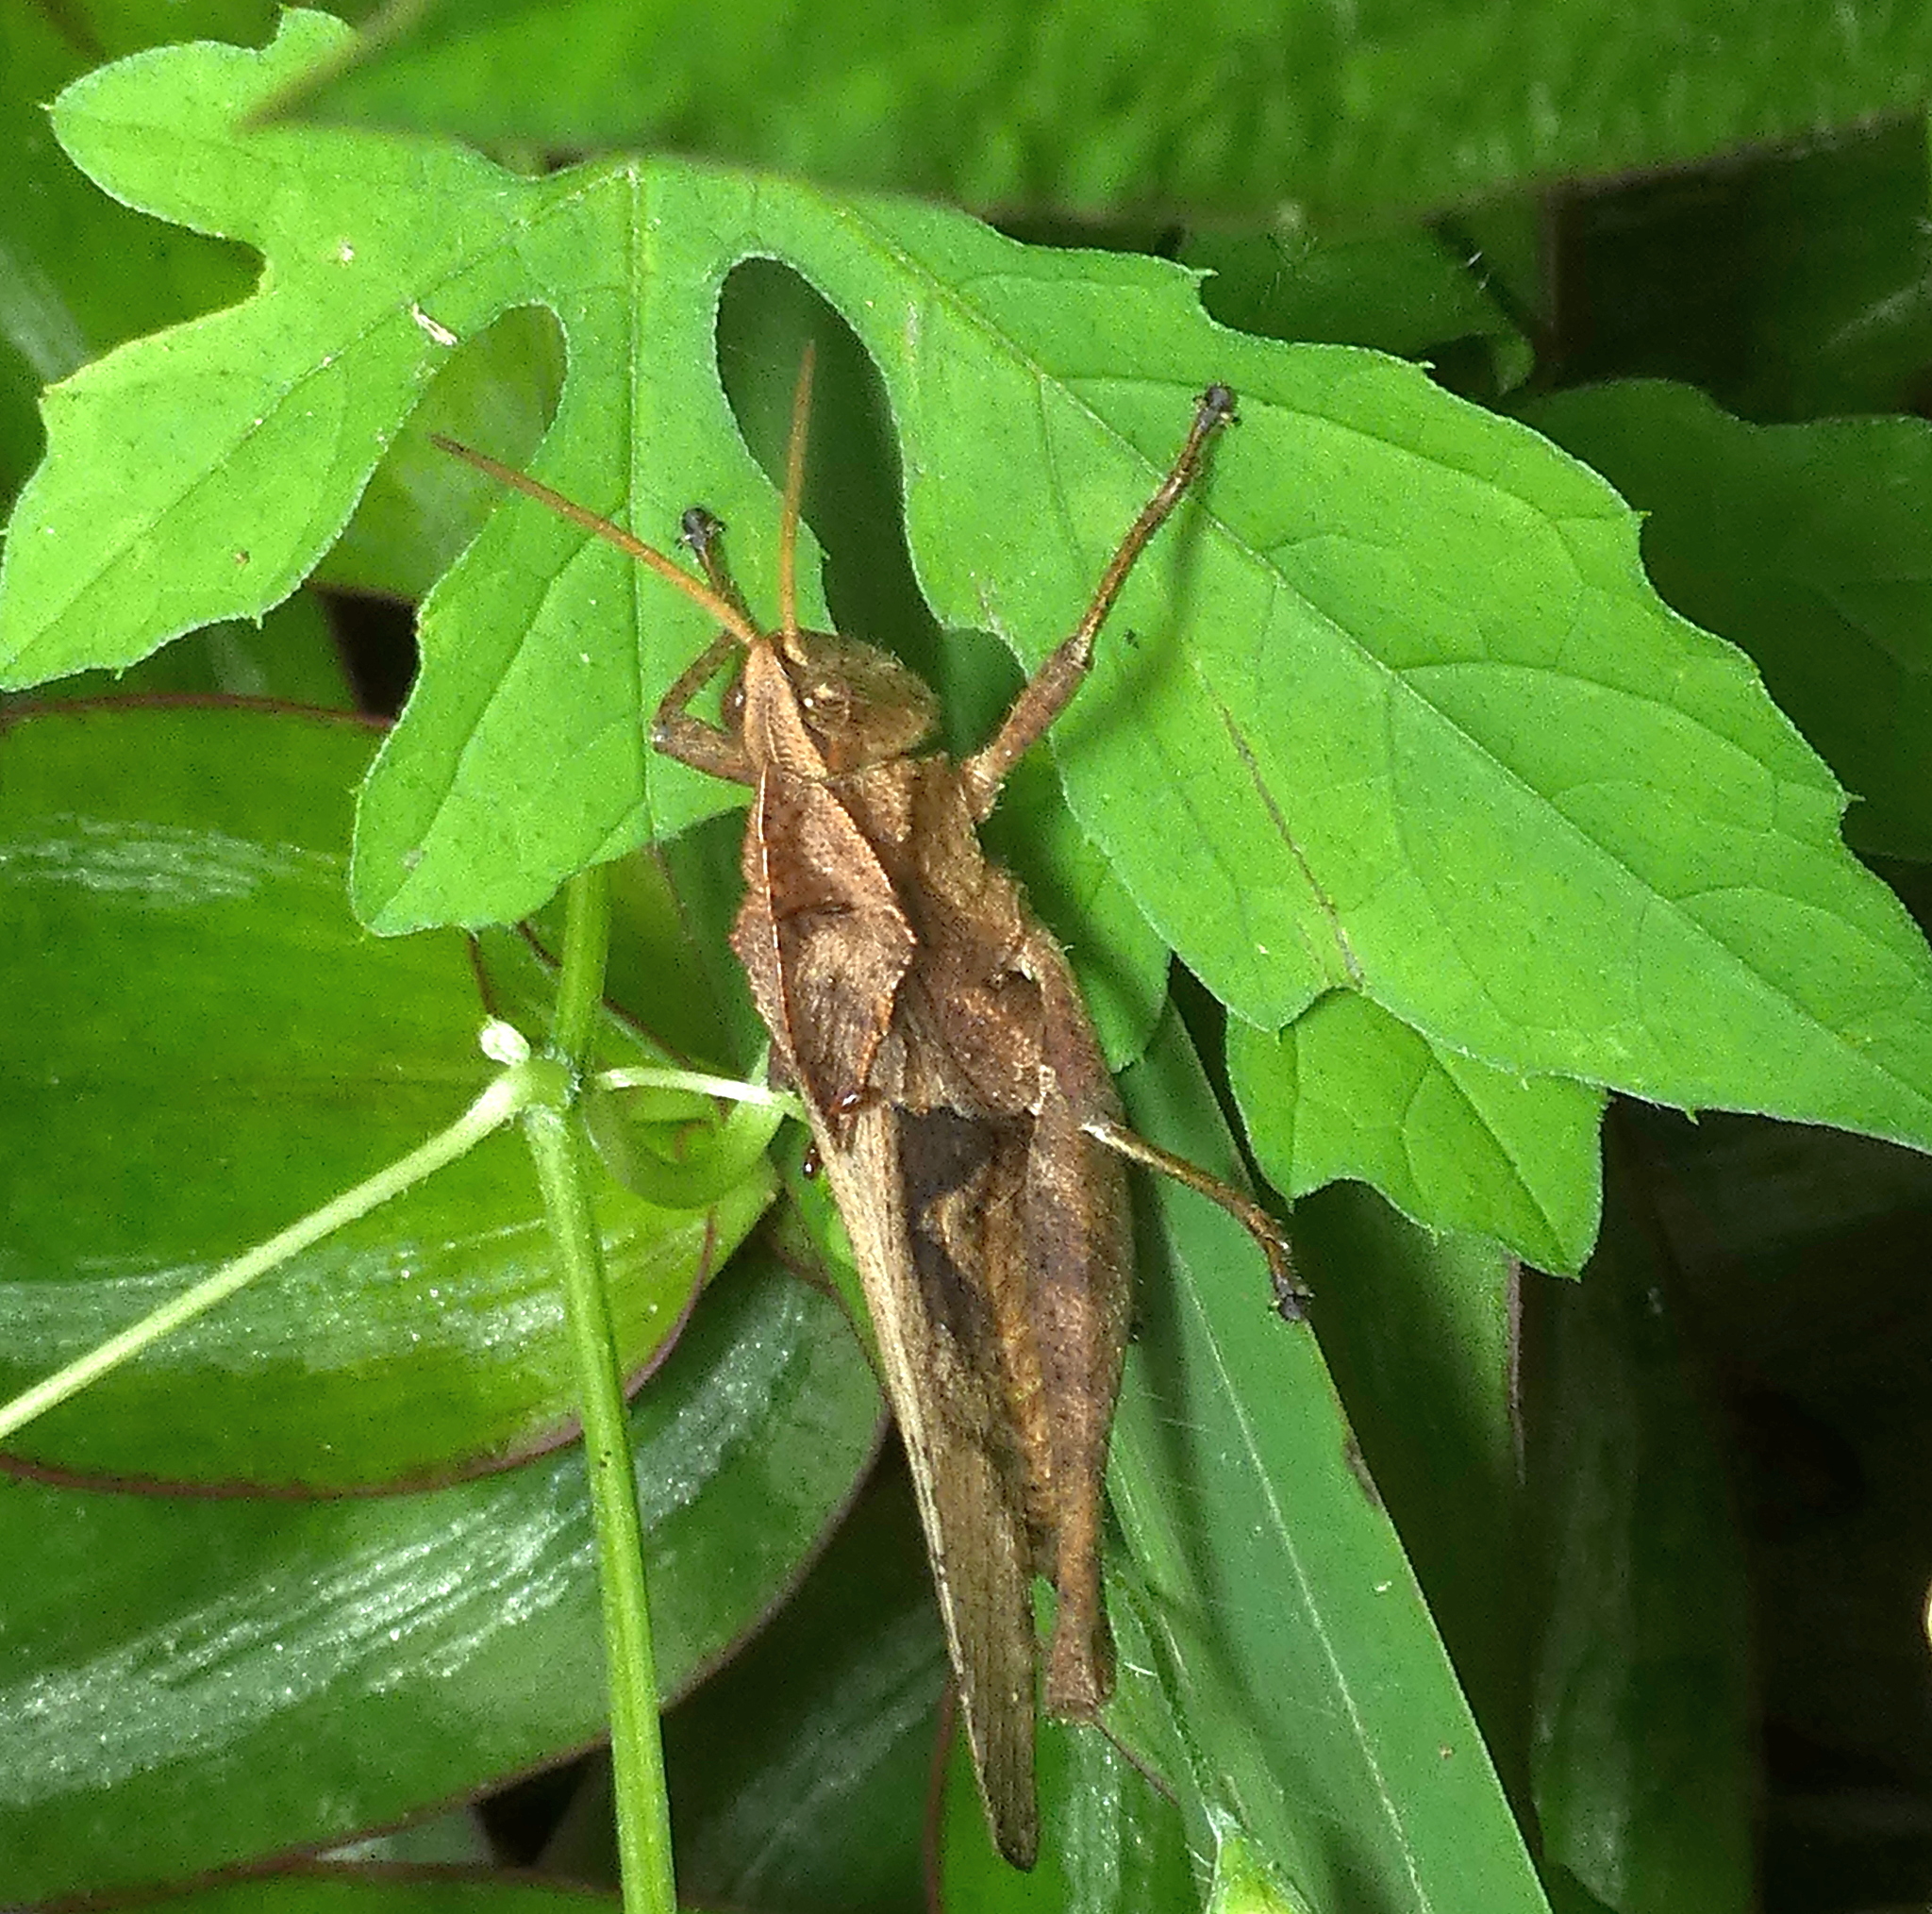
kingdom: Animalia
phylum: Arthropoda
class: Insecta
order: Orthoptera
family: Romaleidae
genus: Xyleus
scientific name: Xyleus discoideus
